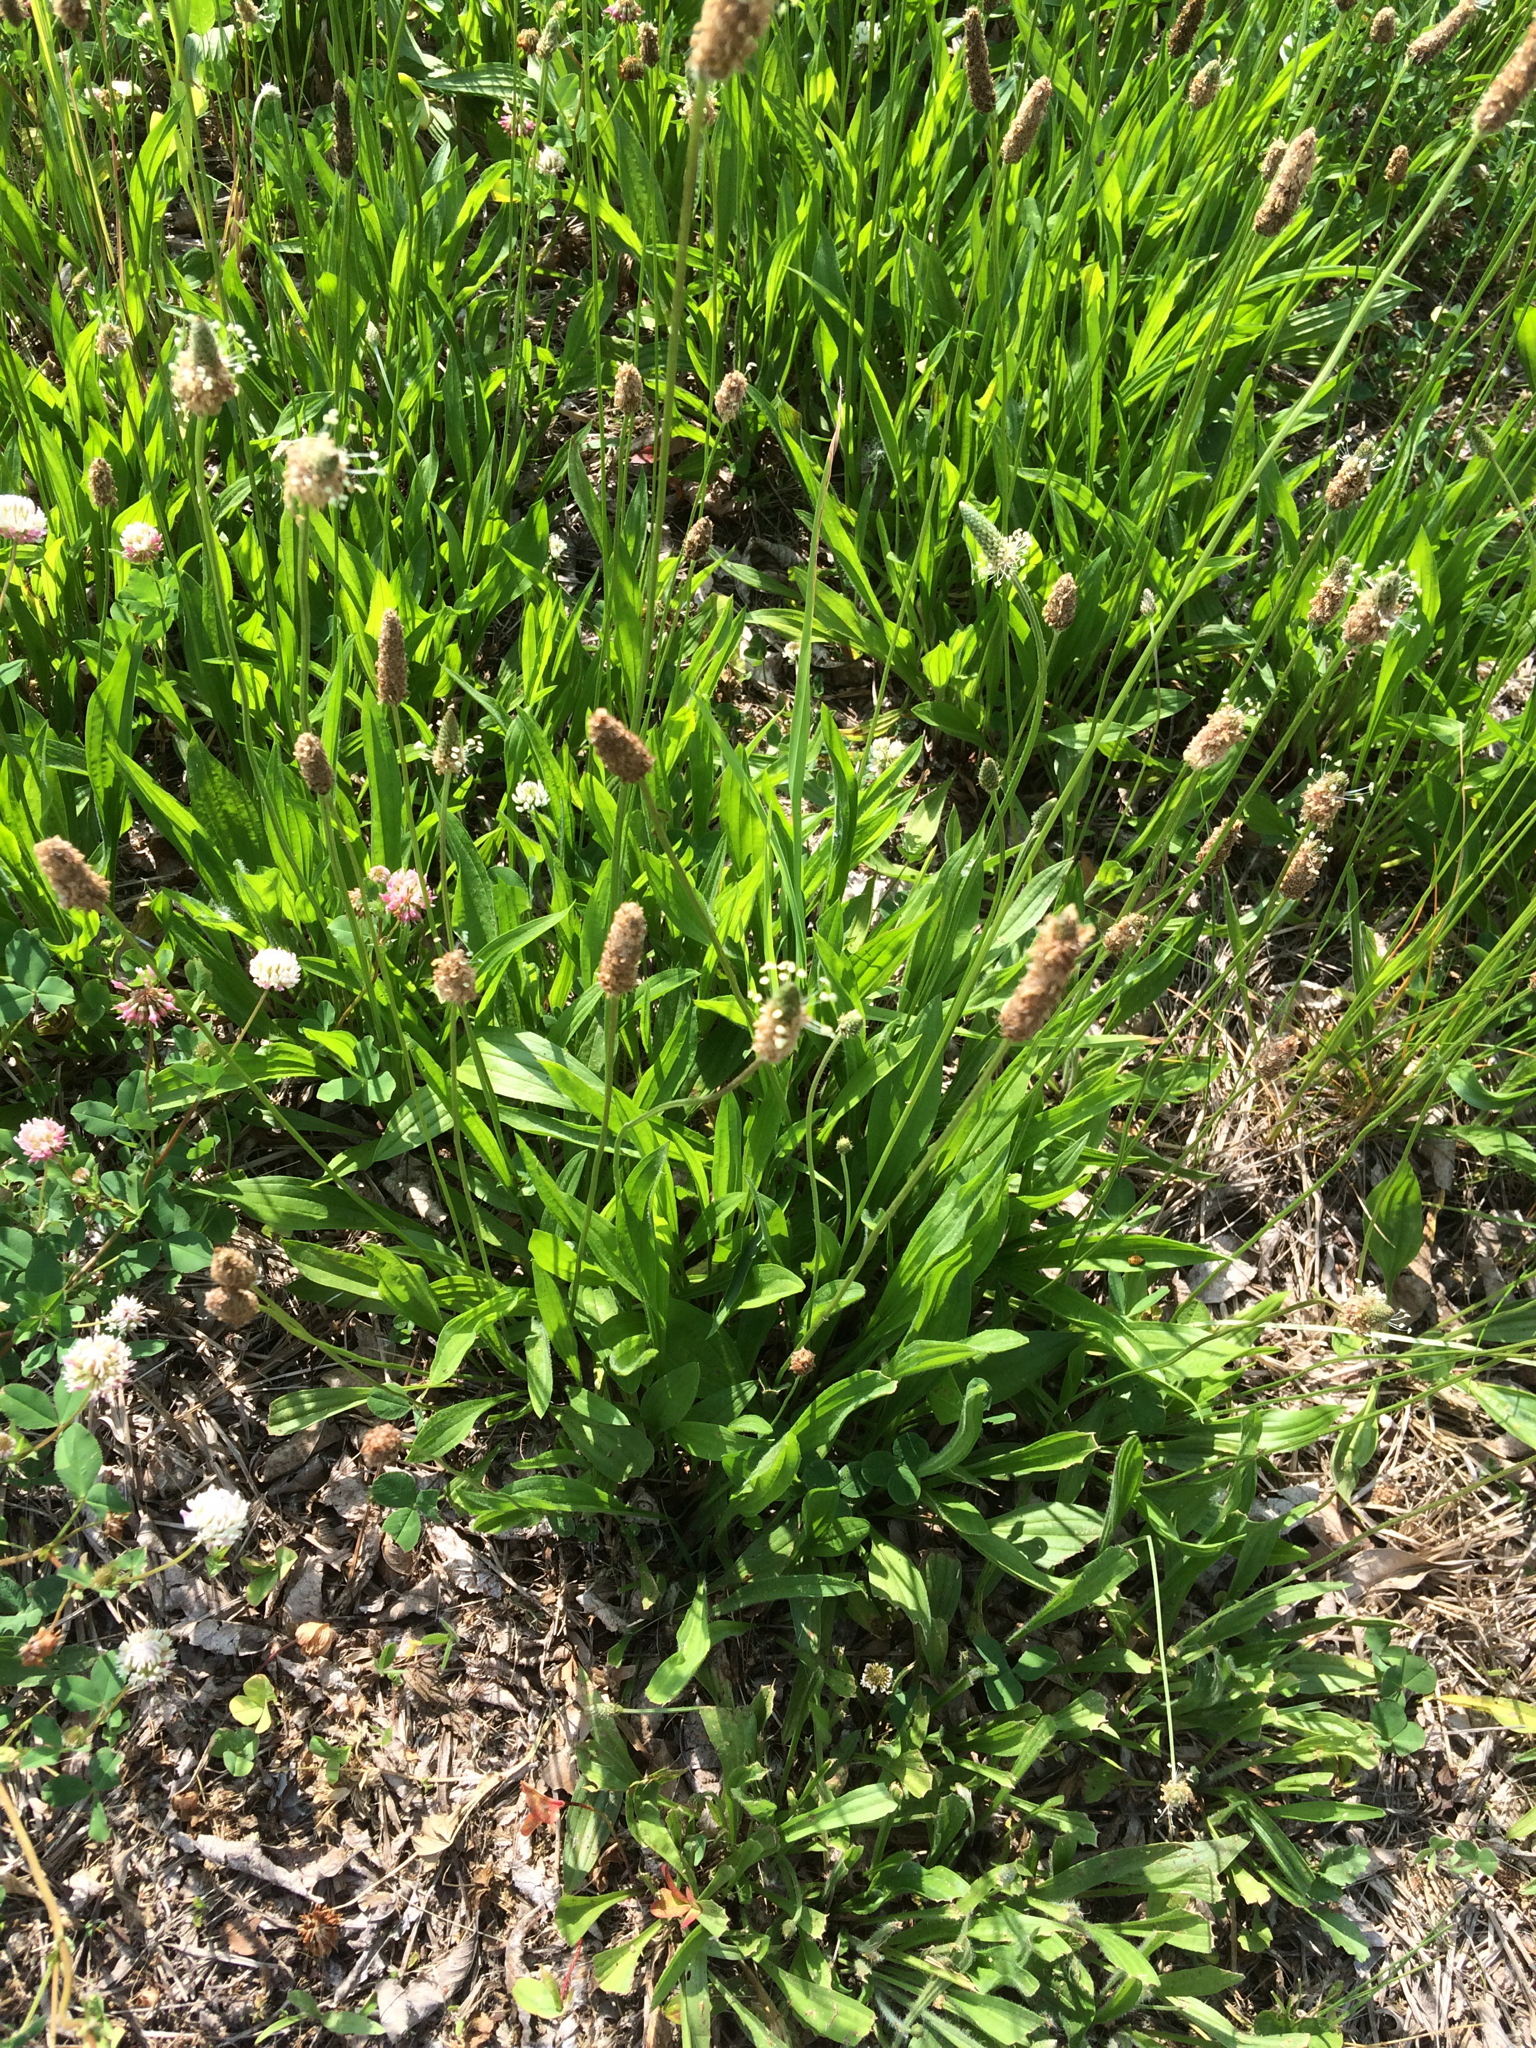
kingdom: Plantae
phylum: Tracheophyta
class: Magnoliopsida
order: Lamiales
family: Plantaginaceae
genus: Plantago
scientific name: Plantago lanceolata
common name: Ribwort plantain
